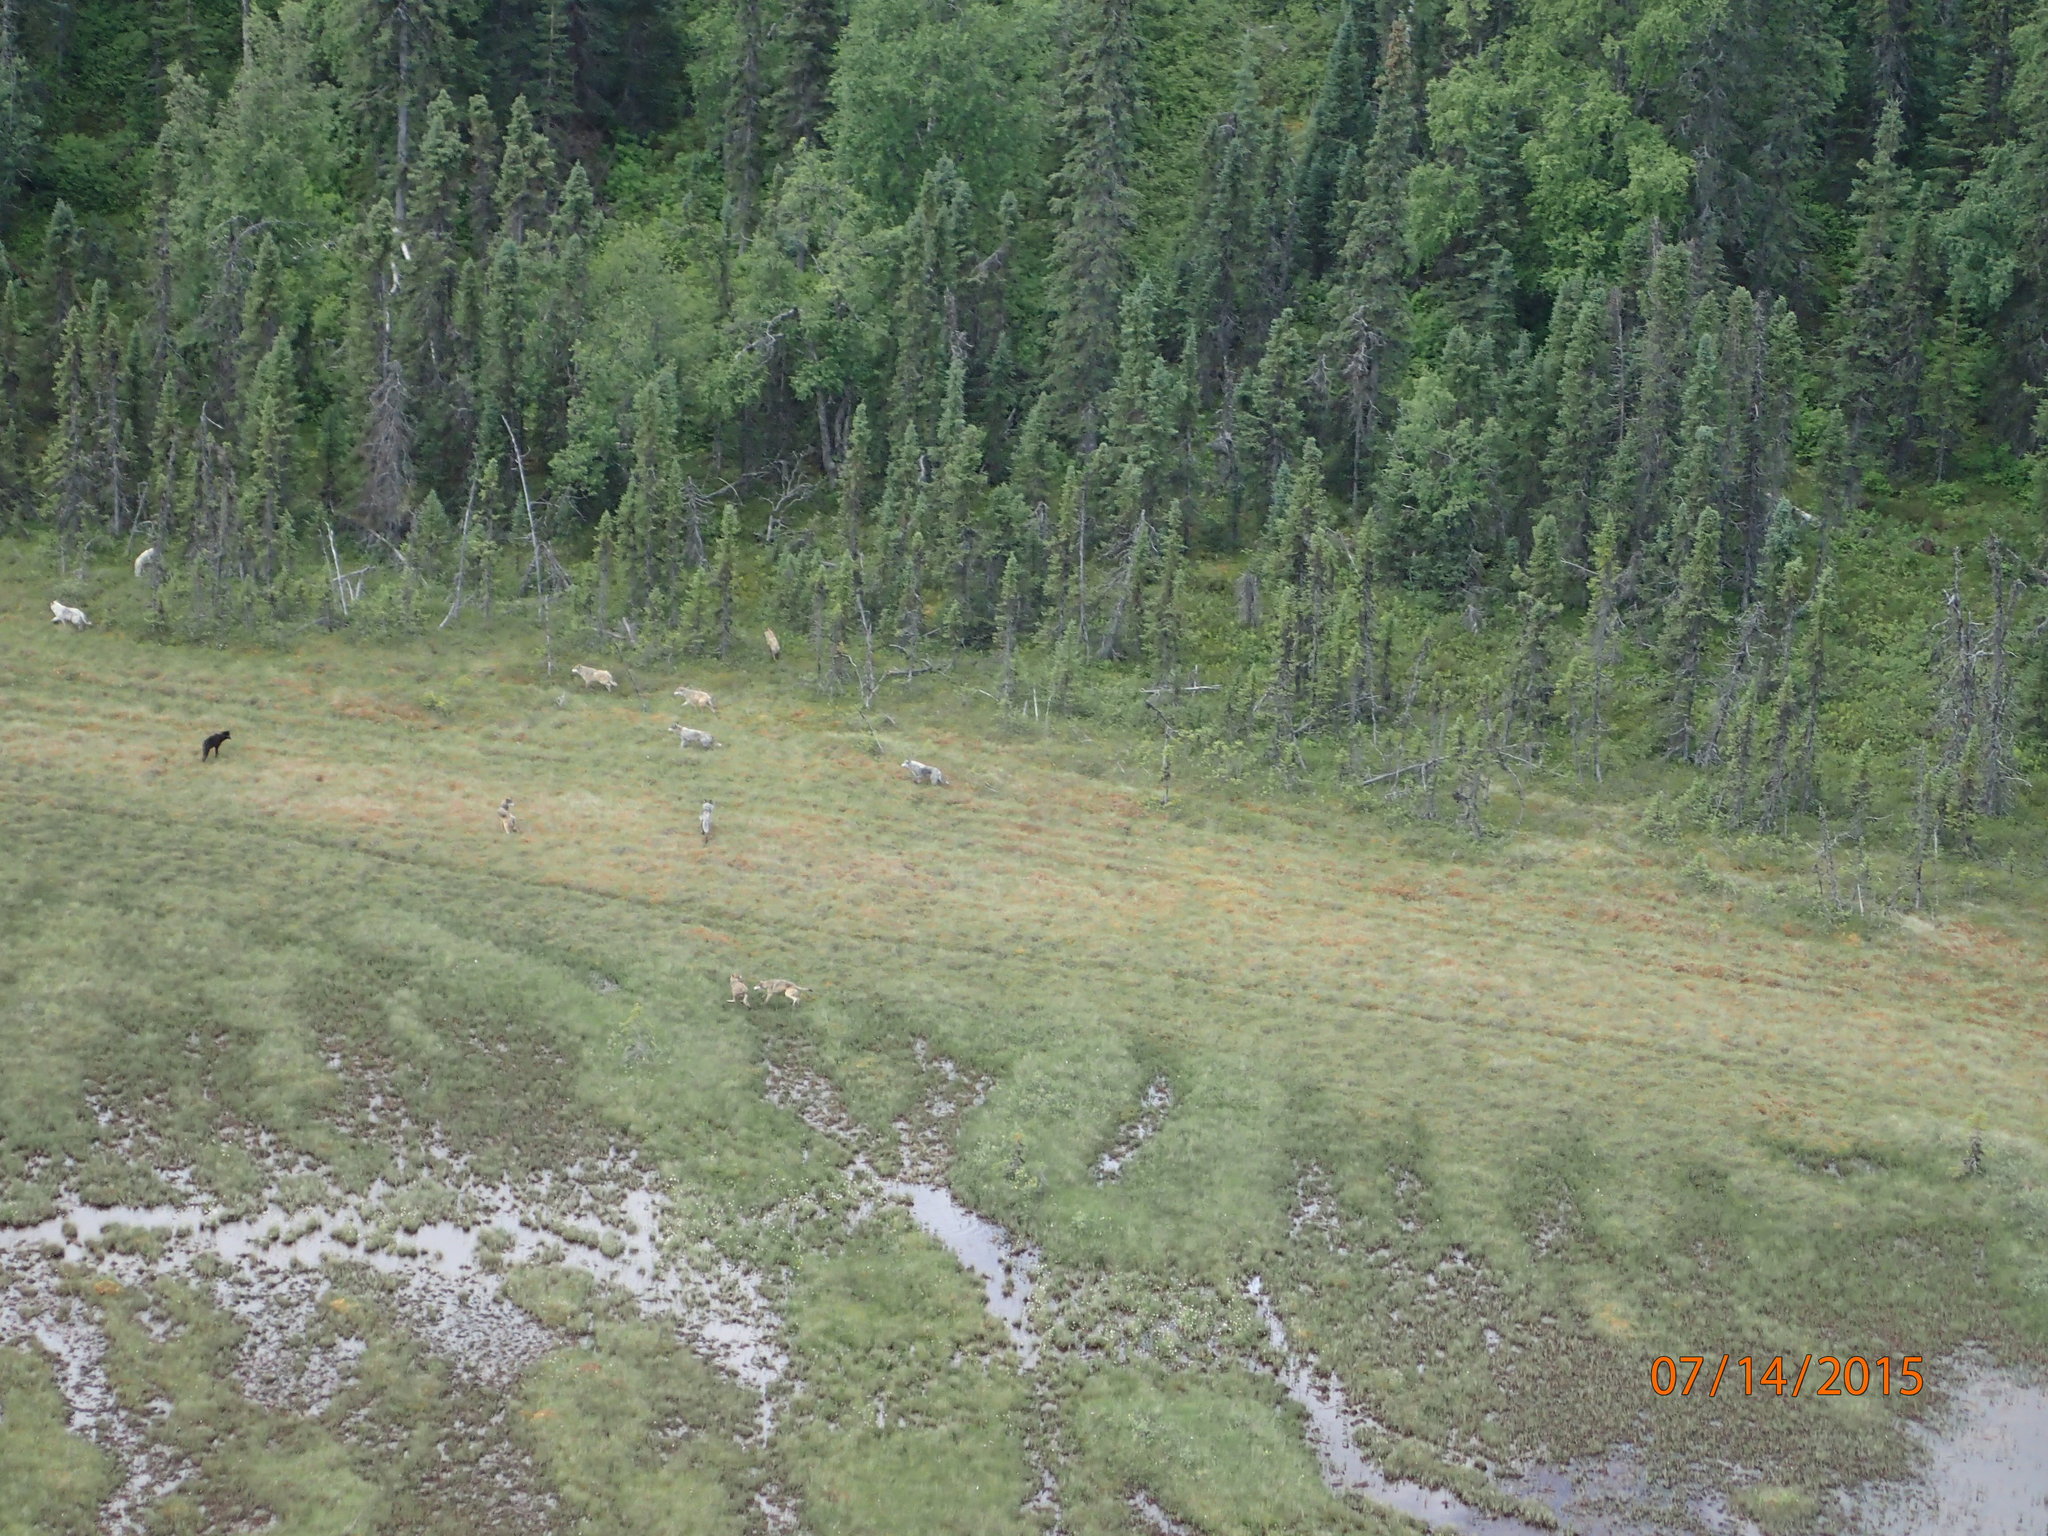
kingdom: Animalia
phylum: Chordata
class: Mammalia
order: Carnivora
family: Canidae
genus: Canis
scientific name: Canis lupus
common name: Gray wolf
